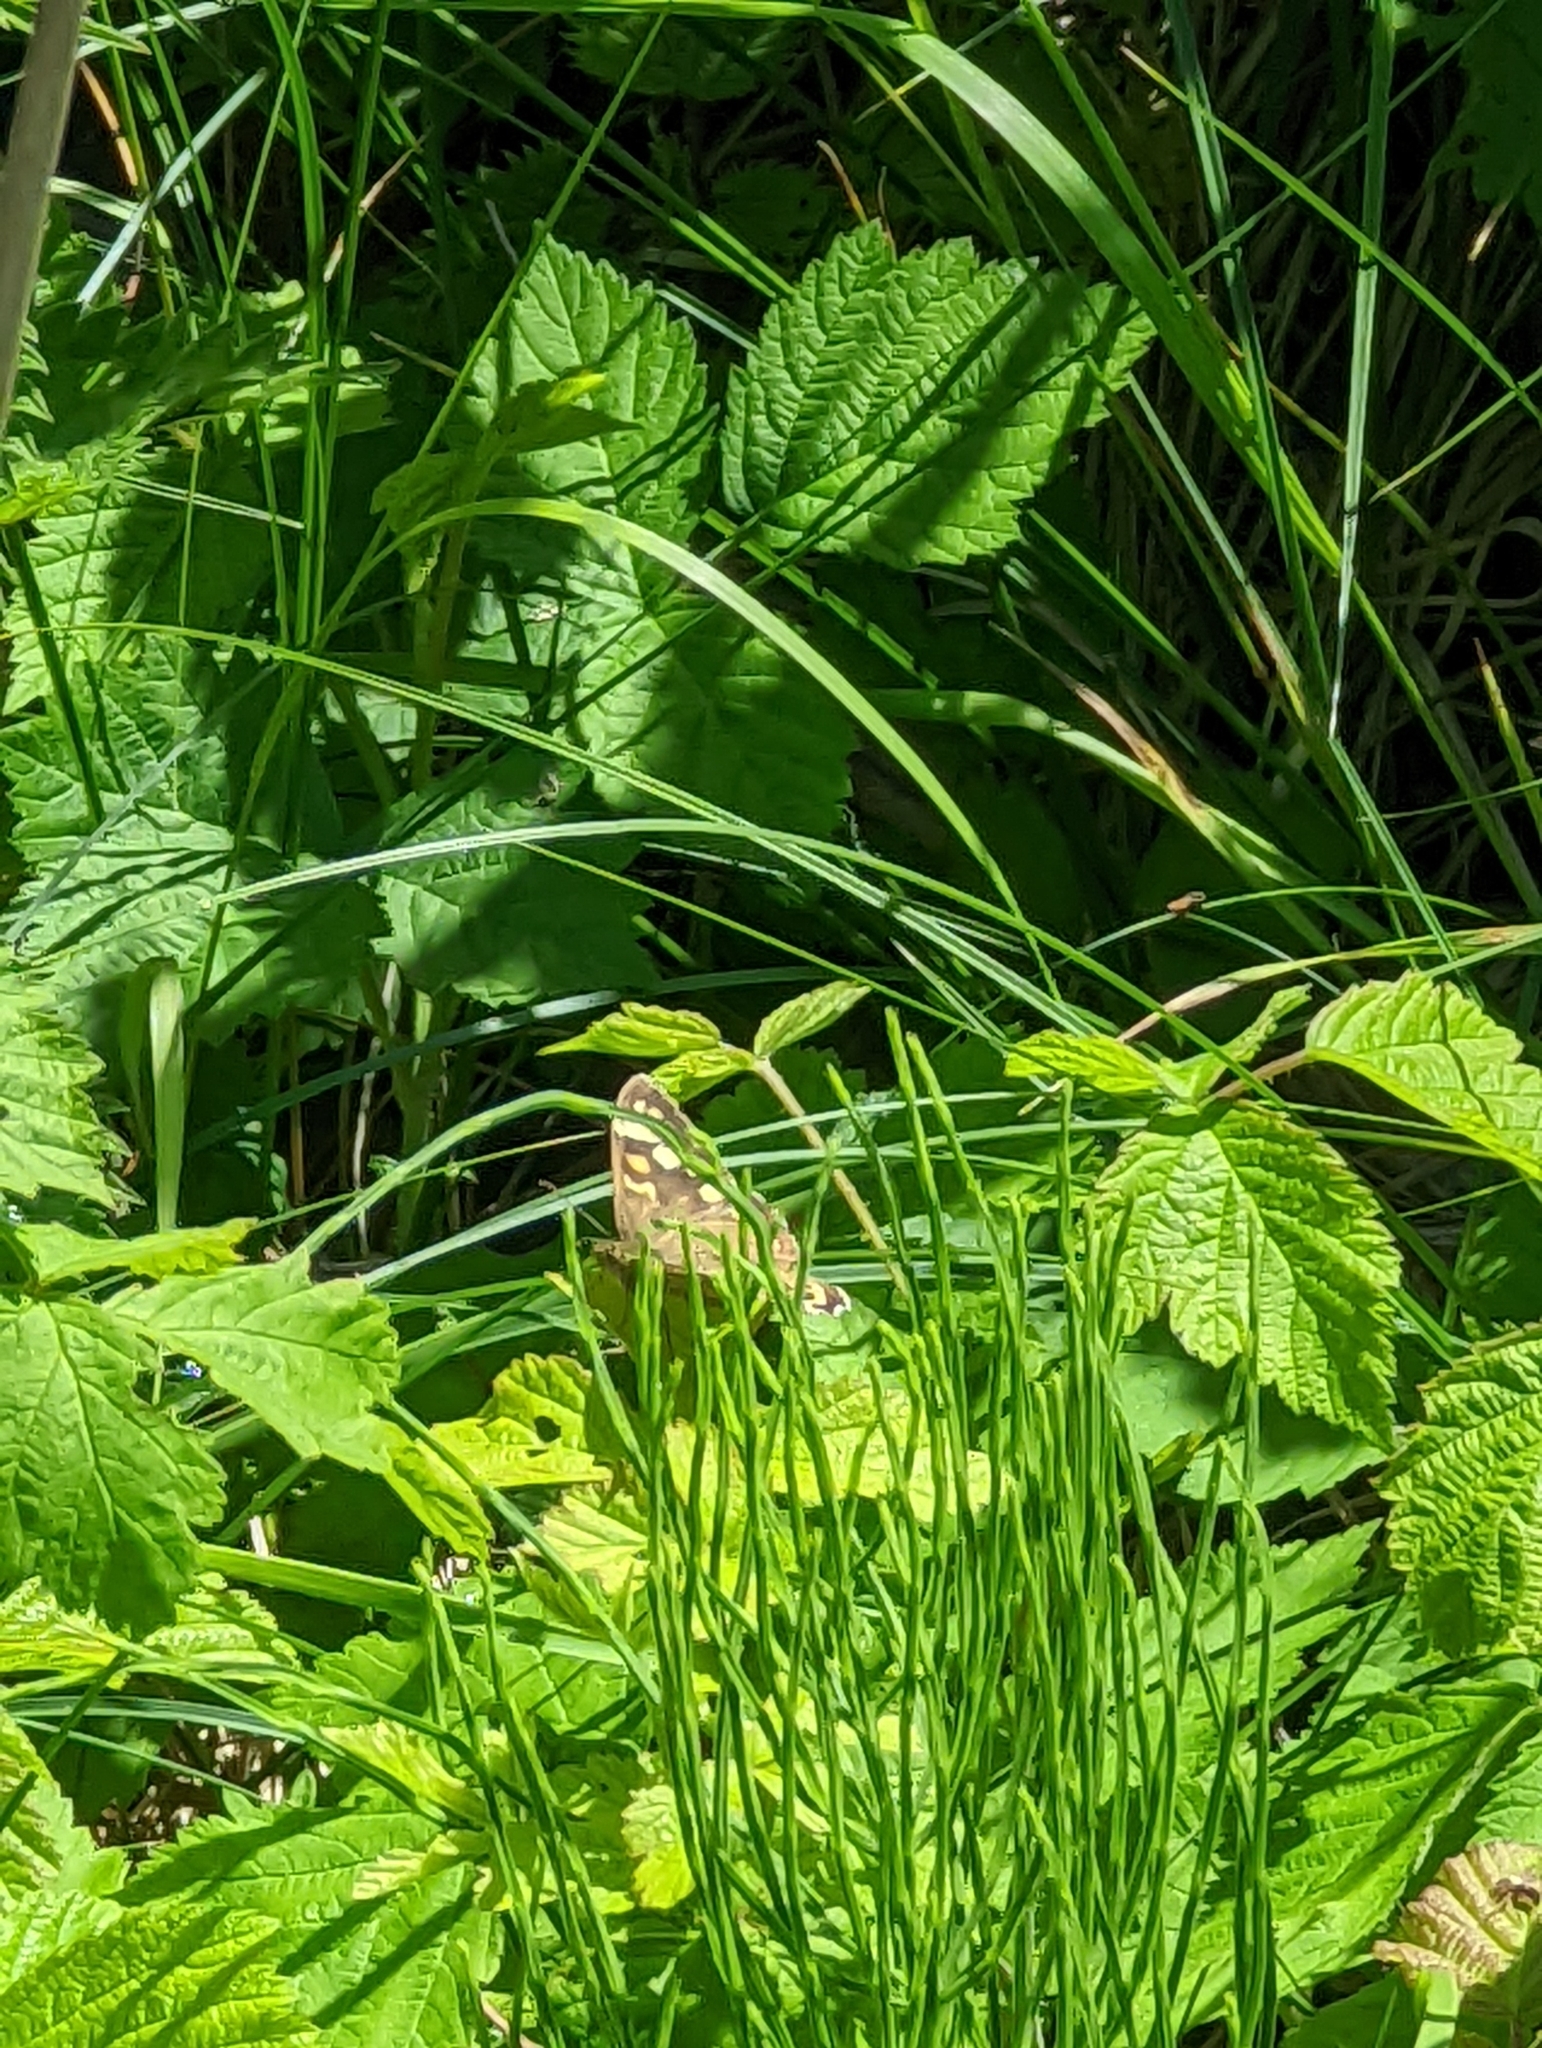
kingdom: Animalia
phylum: Arthropoda
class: Insecta
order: Lepidoptera
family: Nymphalidae
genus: Pararge
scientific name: Pararge aegeria
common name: Speckled wood
